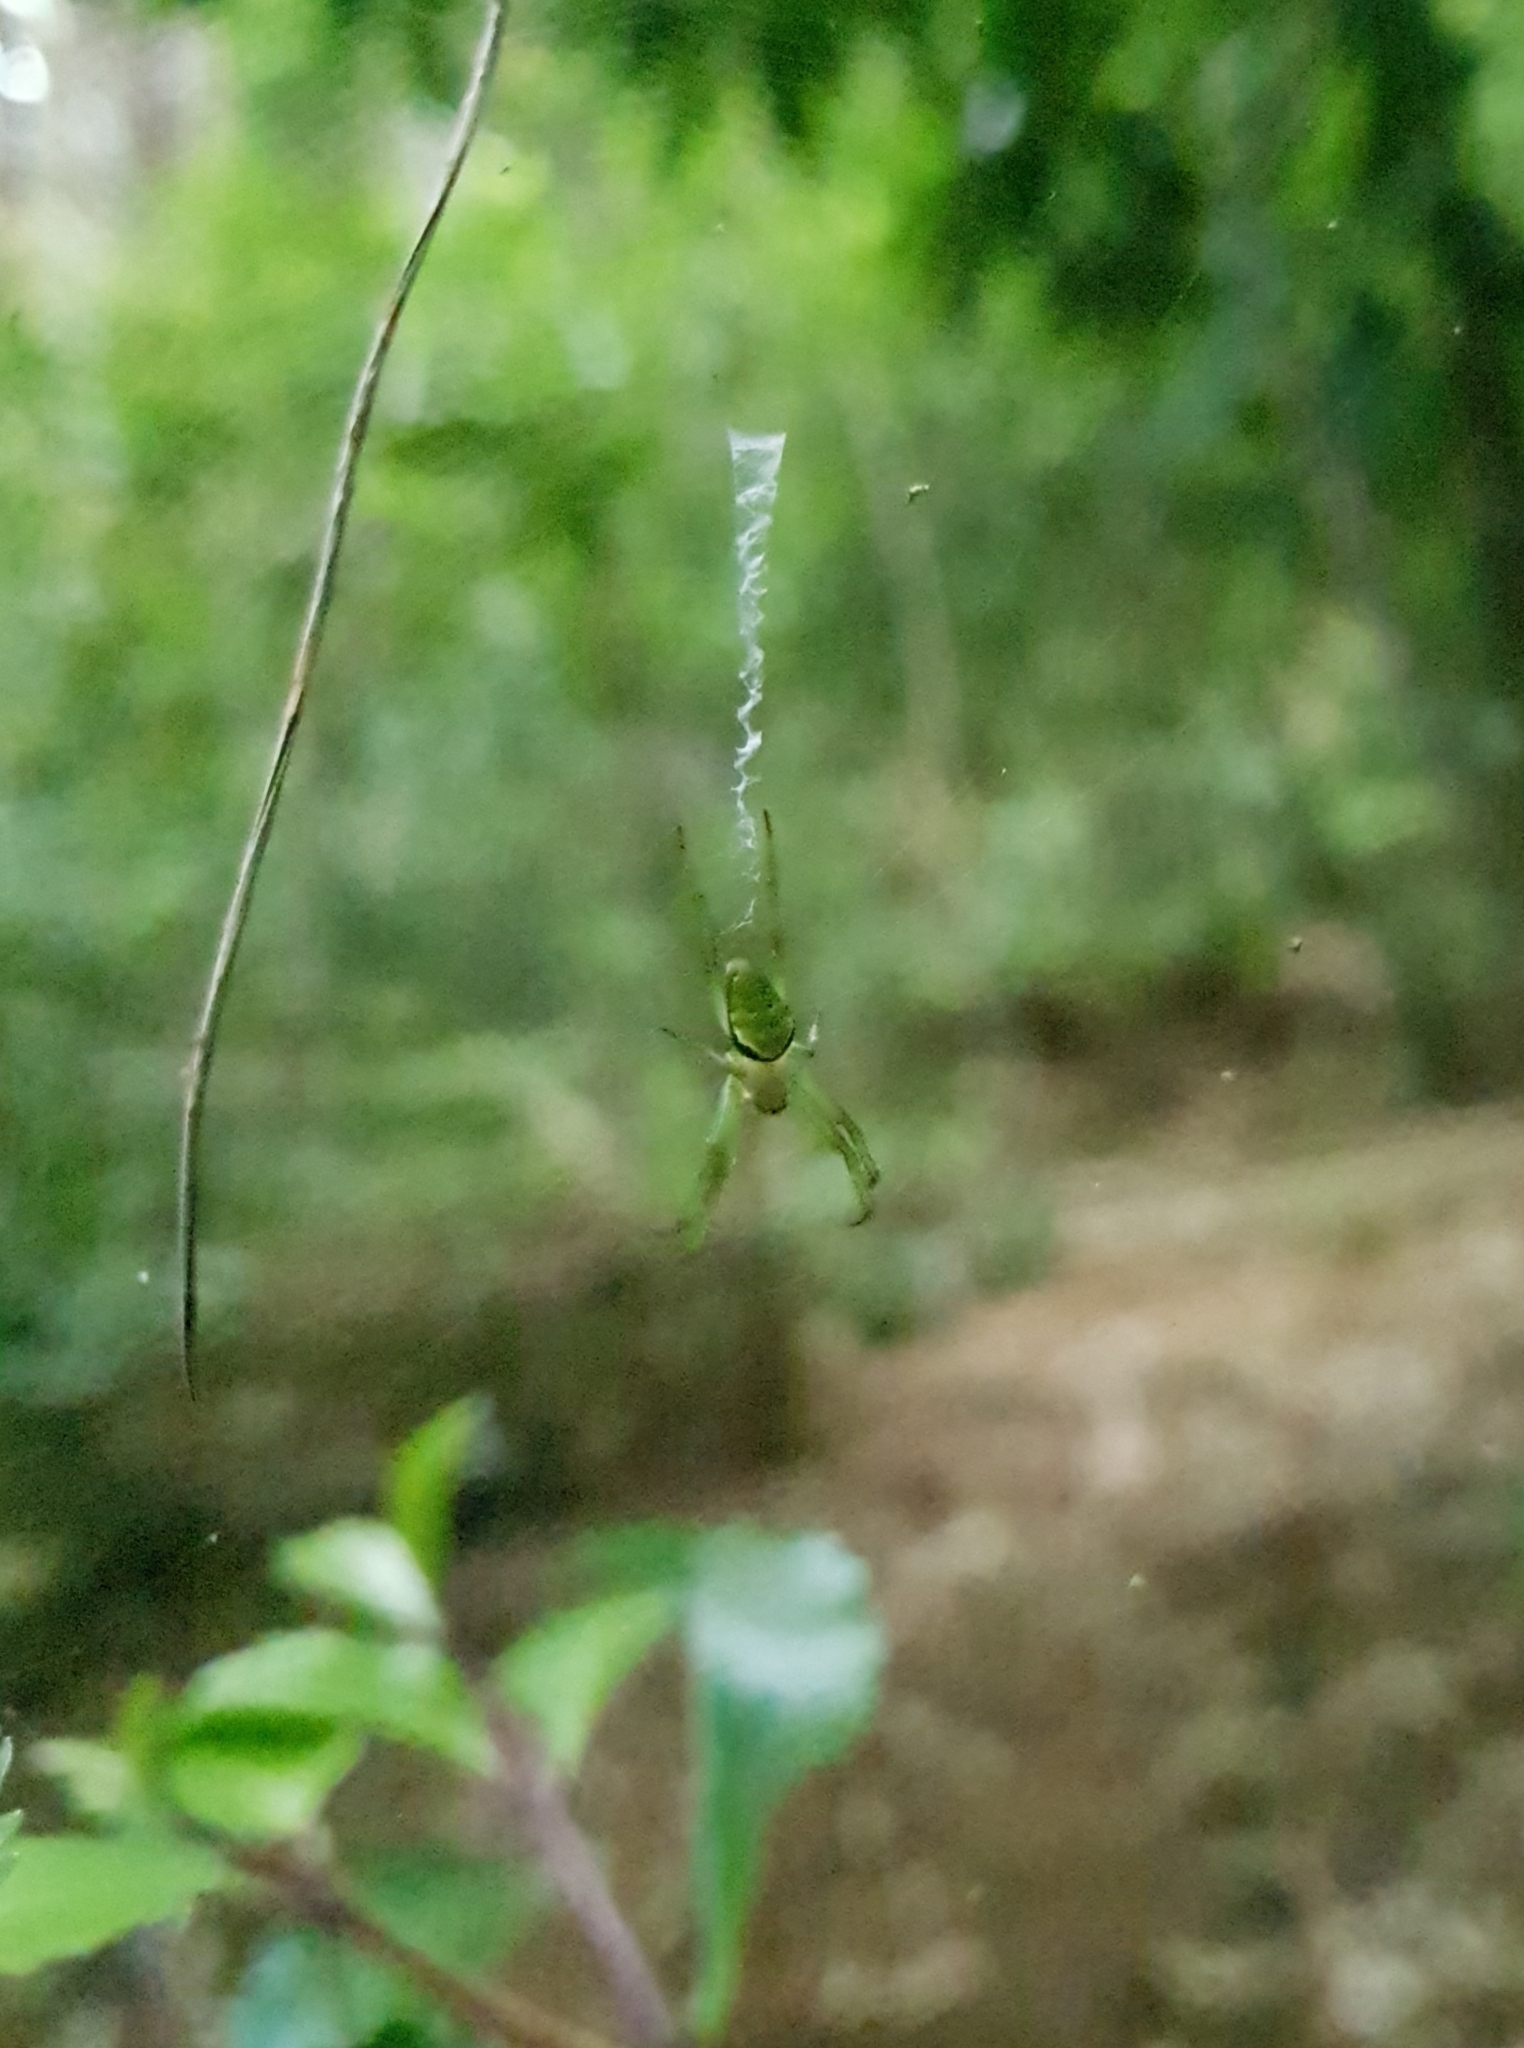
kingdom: Animalia
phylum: Arthropoda
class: Arachnida
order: Araneae
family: Araneidae
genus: Colaranea
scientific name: Colaranea viriditas
